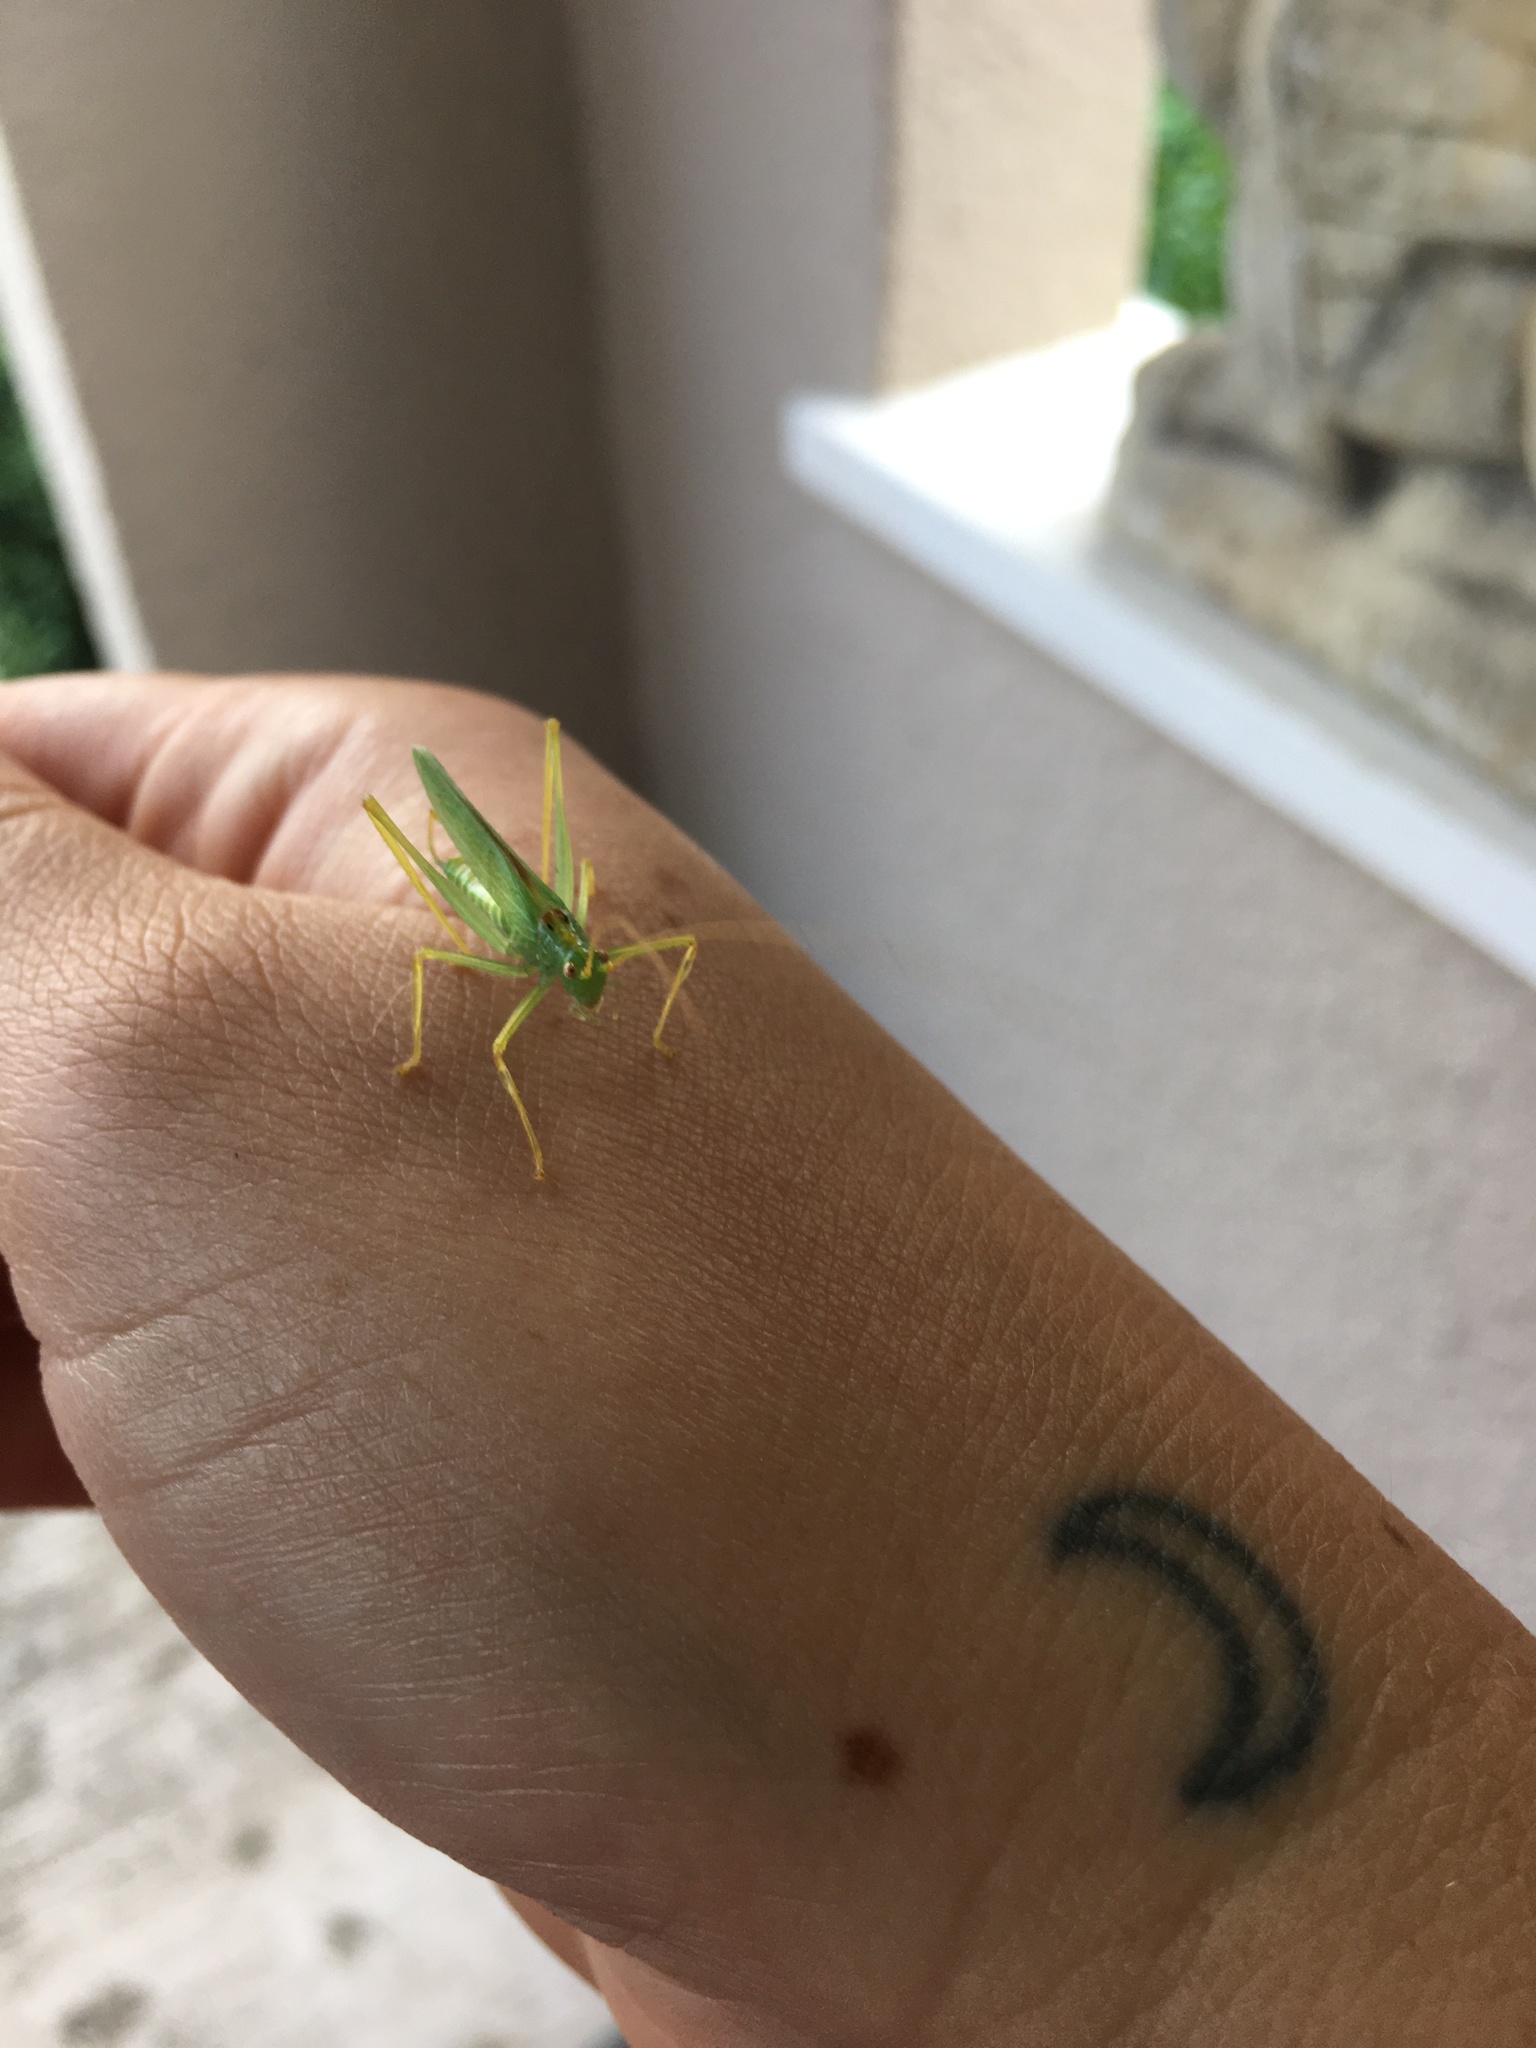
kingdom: Animalia
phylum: Arthropoda
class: Insecta
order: Orthoptera
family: Tettigoniidae
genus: Meconema
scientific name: Meconema thalassinum
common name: Oak bush-cricket
